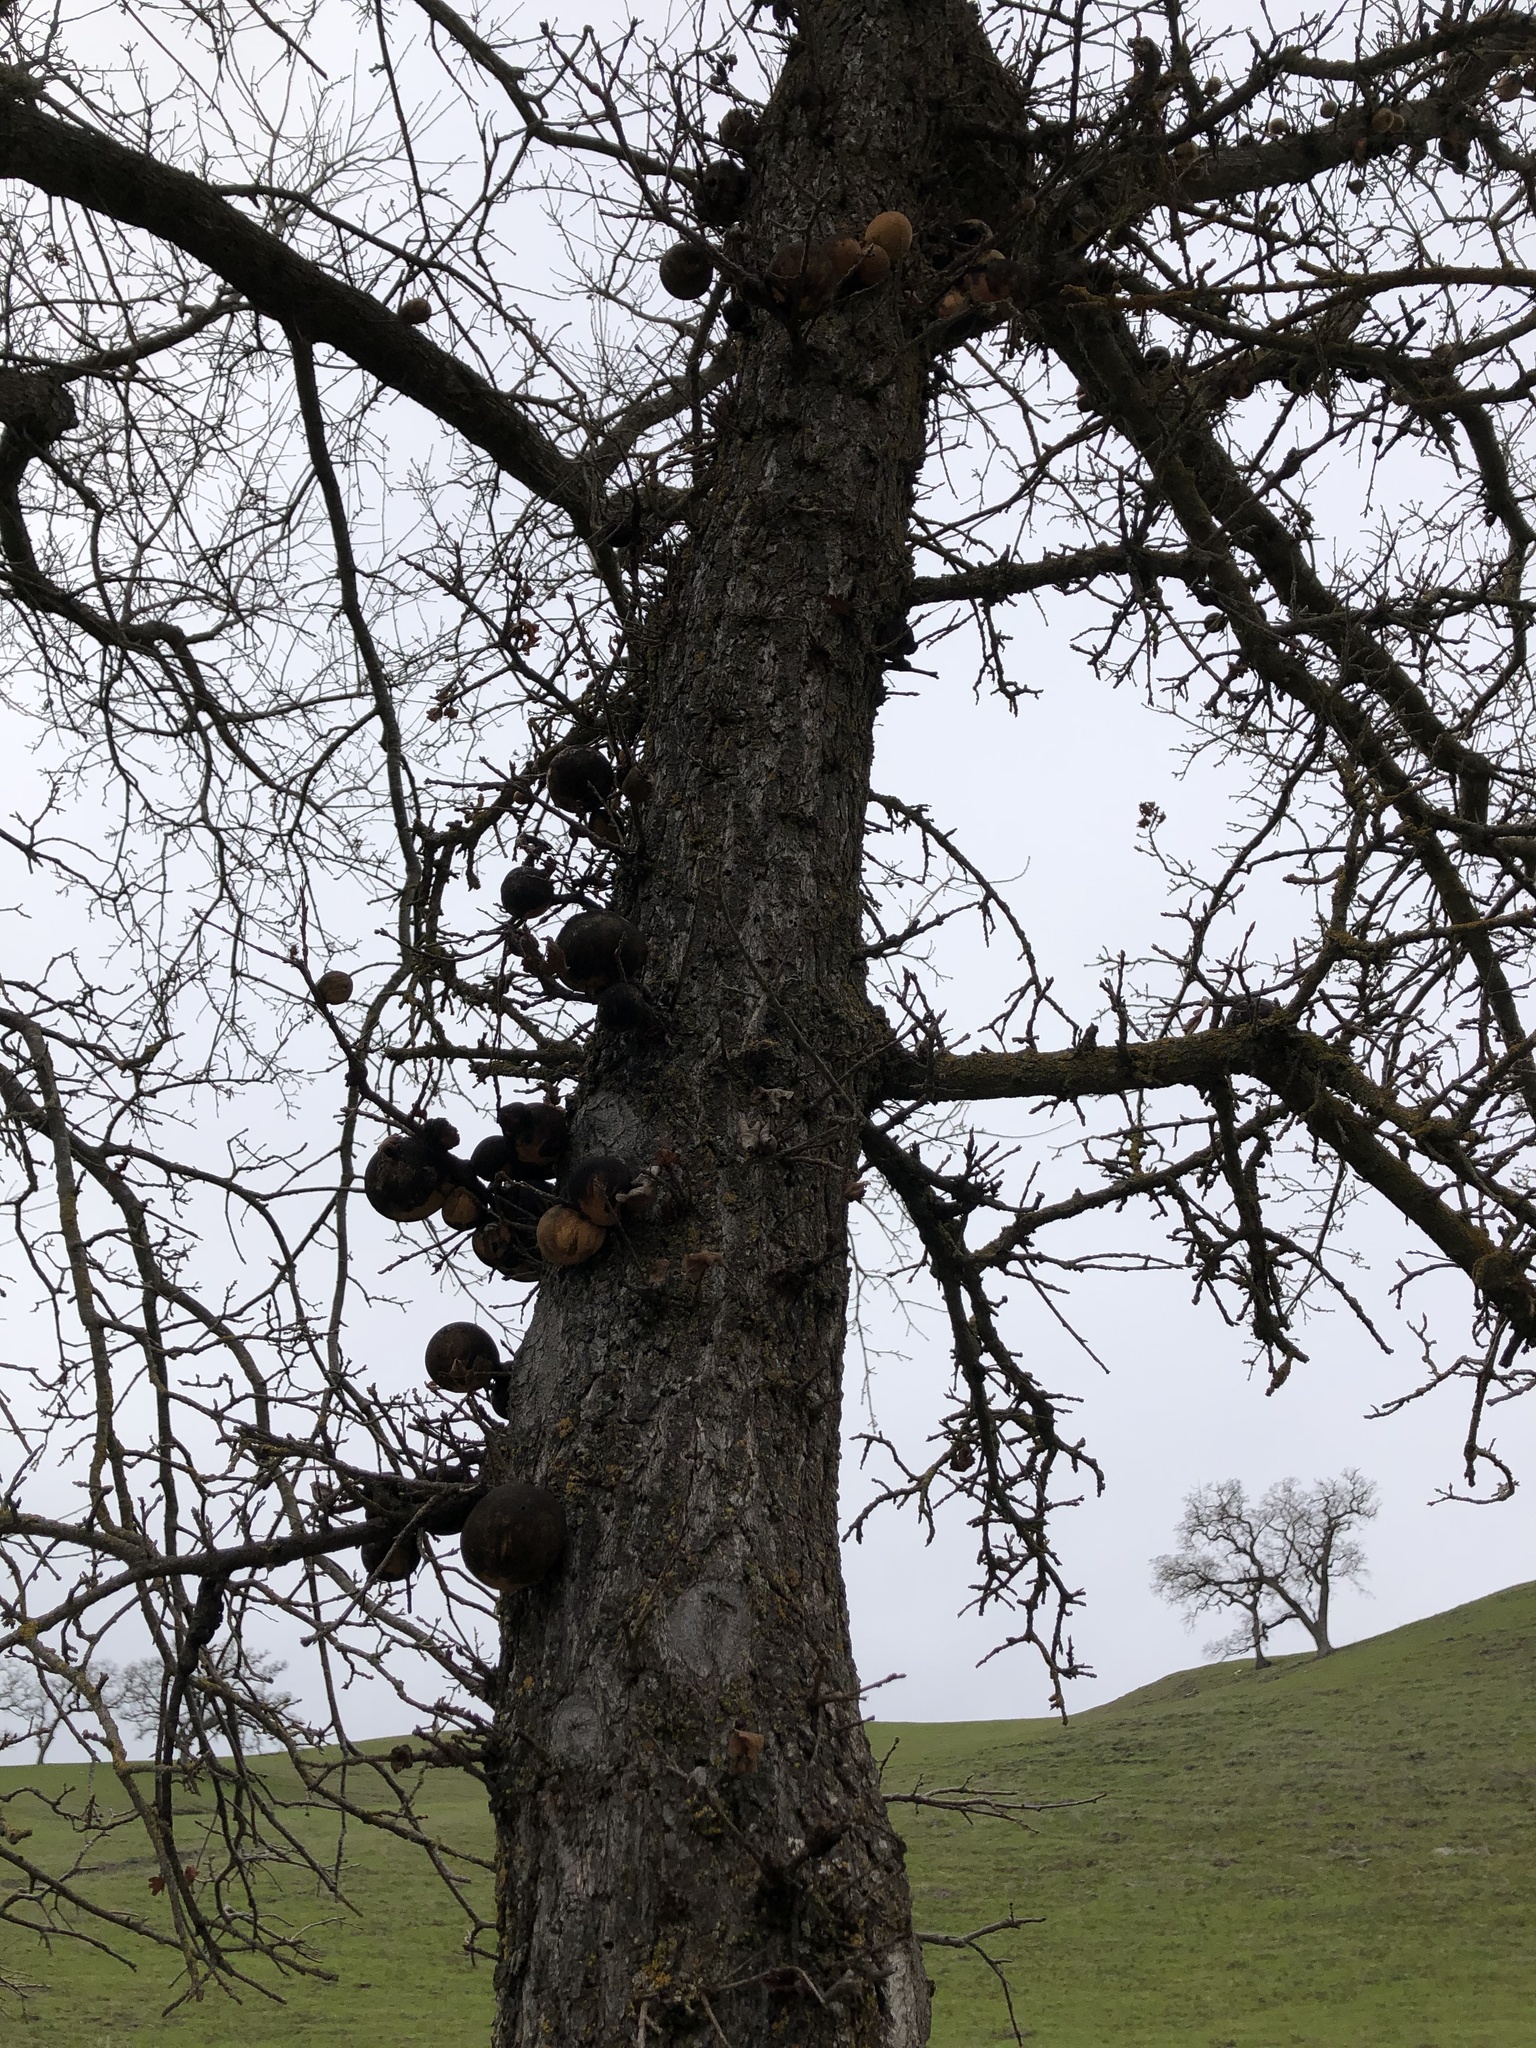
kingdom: Animalia
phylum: Arthropoda
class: Insecta
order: Hymenoptera
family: Cynipidae
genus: Andricus
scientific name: Andricus quercuscalifornicus
